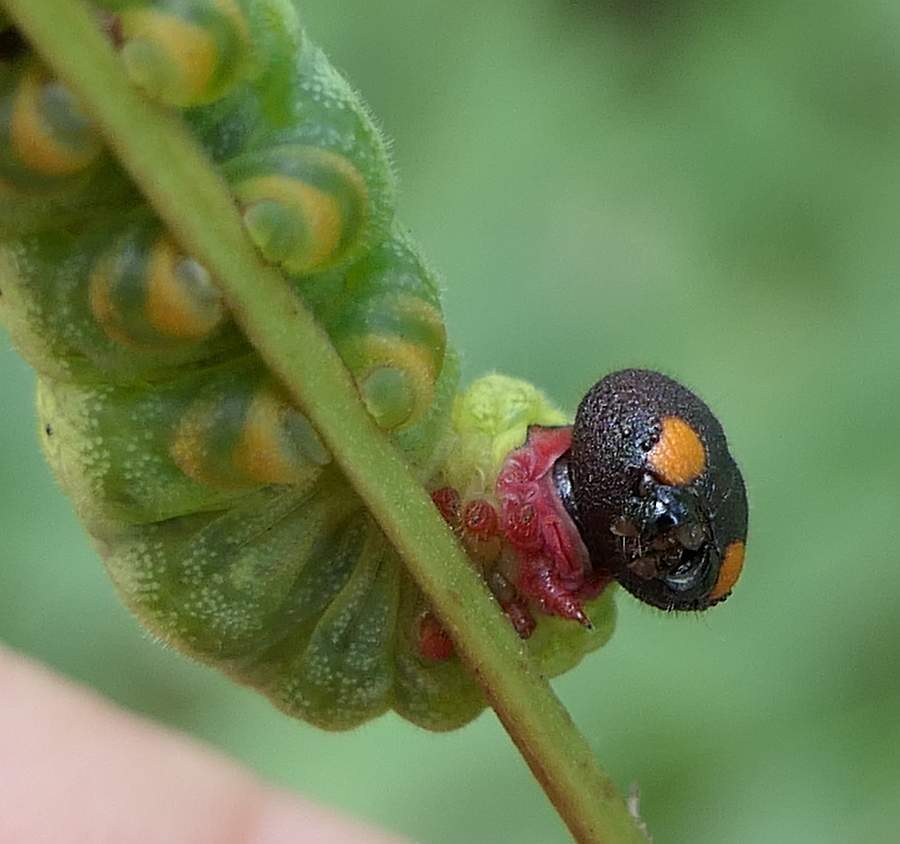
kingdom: Animalia
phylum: Arthropoda
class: Insecta
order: Lepidoptera
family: Hesperiidae
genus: Epargyreus
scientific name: Epargyreus clarus
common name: Silver-spotted skipper
